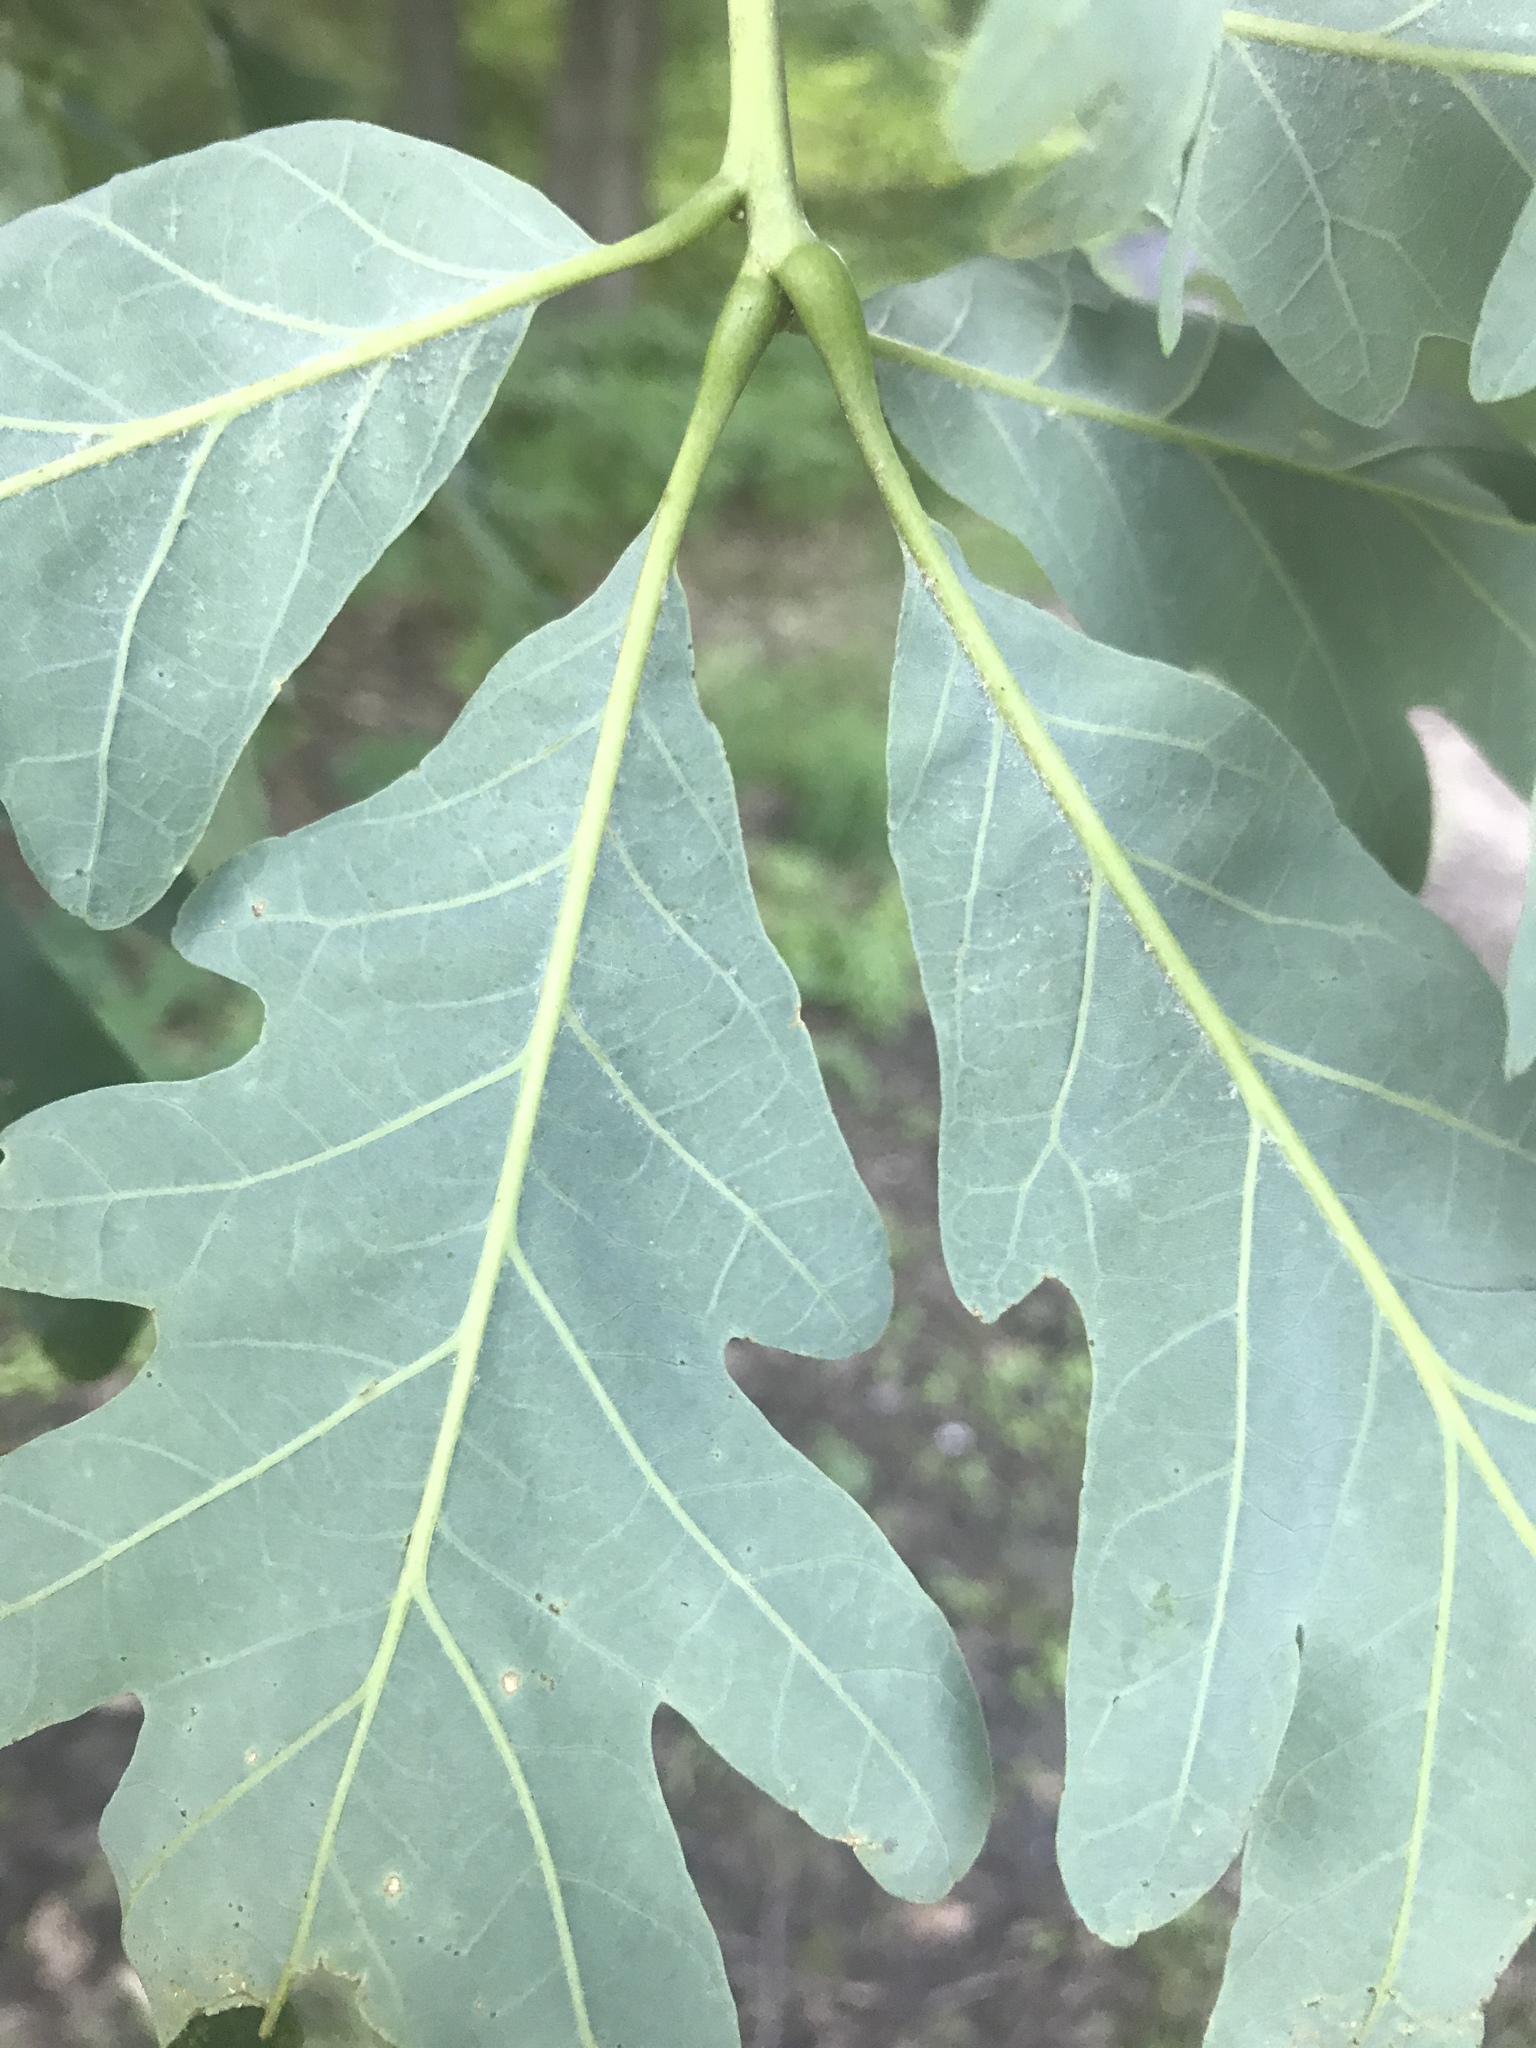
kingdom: Plantae
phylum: Tracheophyta
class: Magnoliopsida
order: Fagales
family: Fagaceae
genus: Quercus
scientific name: Quercus alba
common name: White oak
